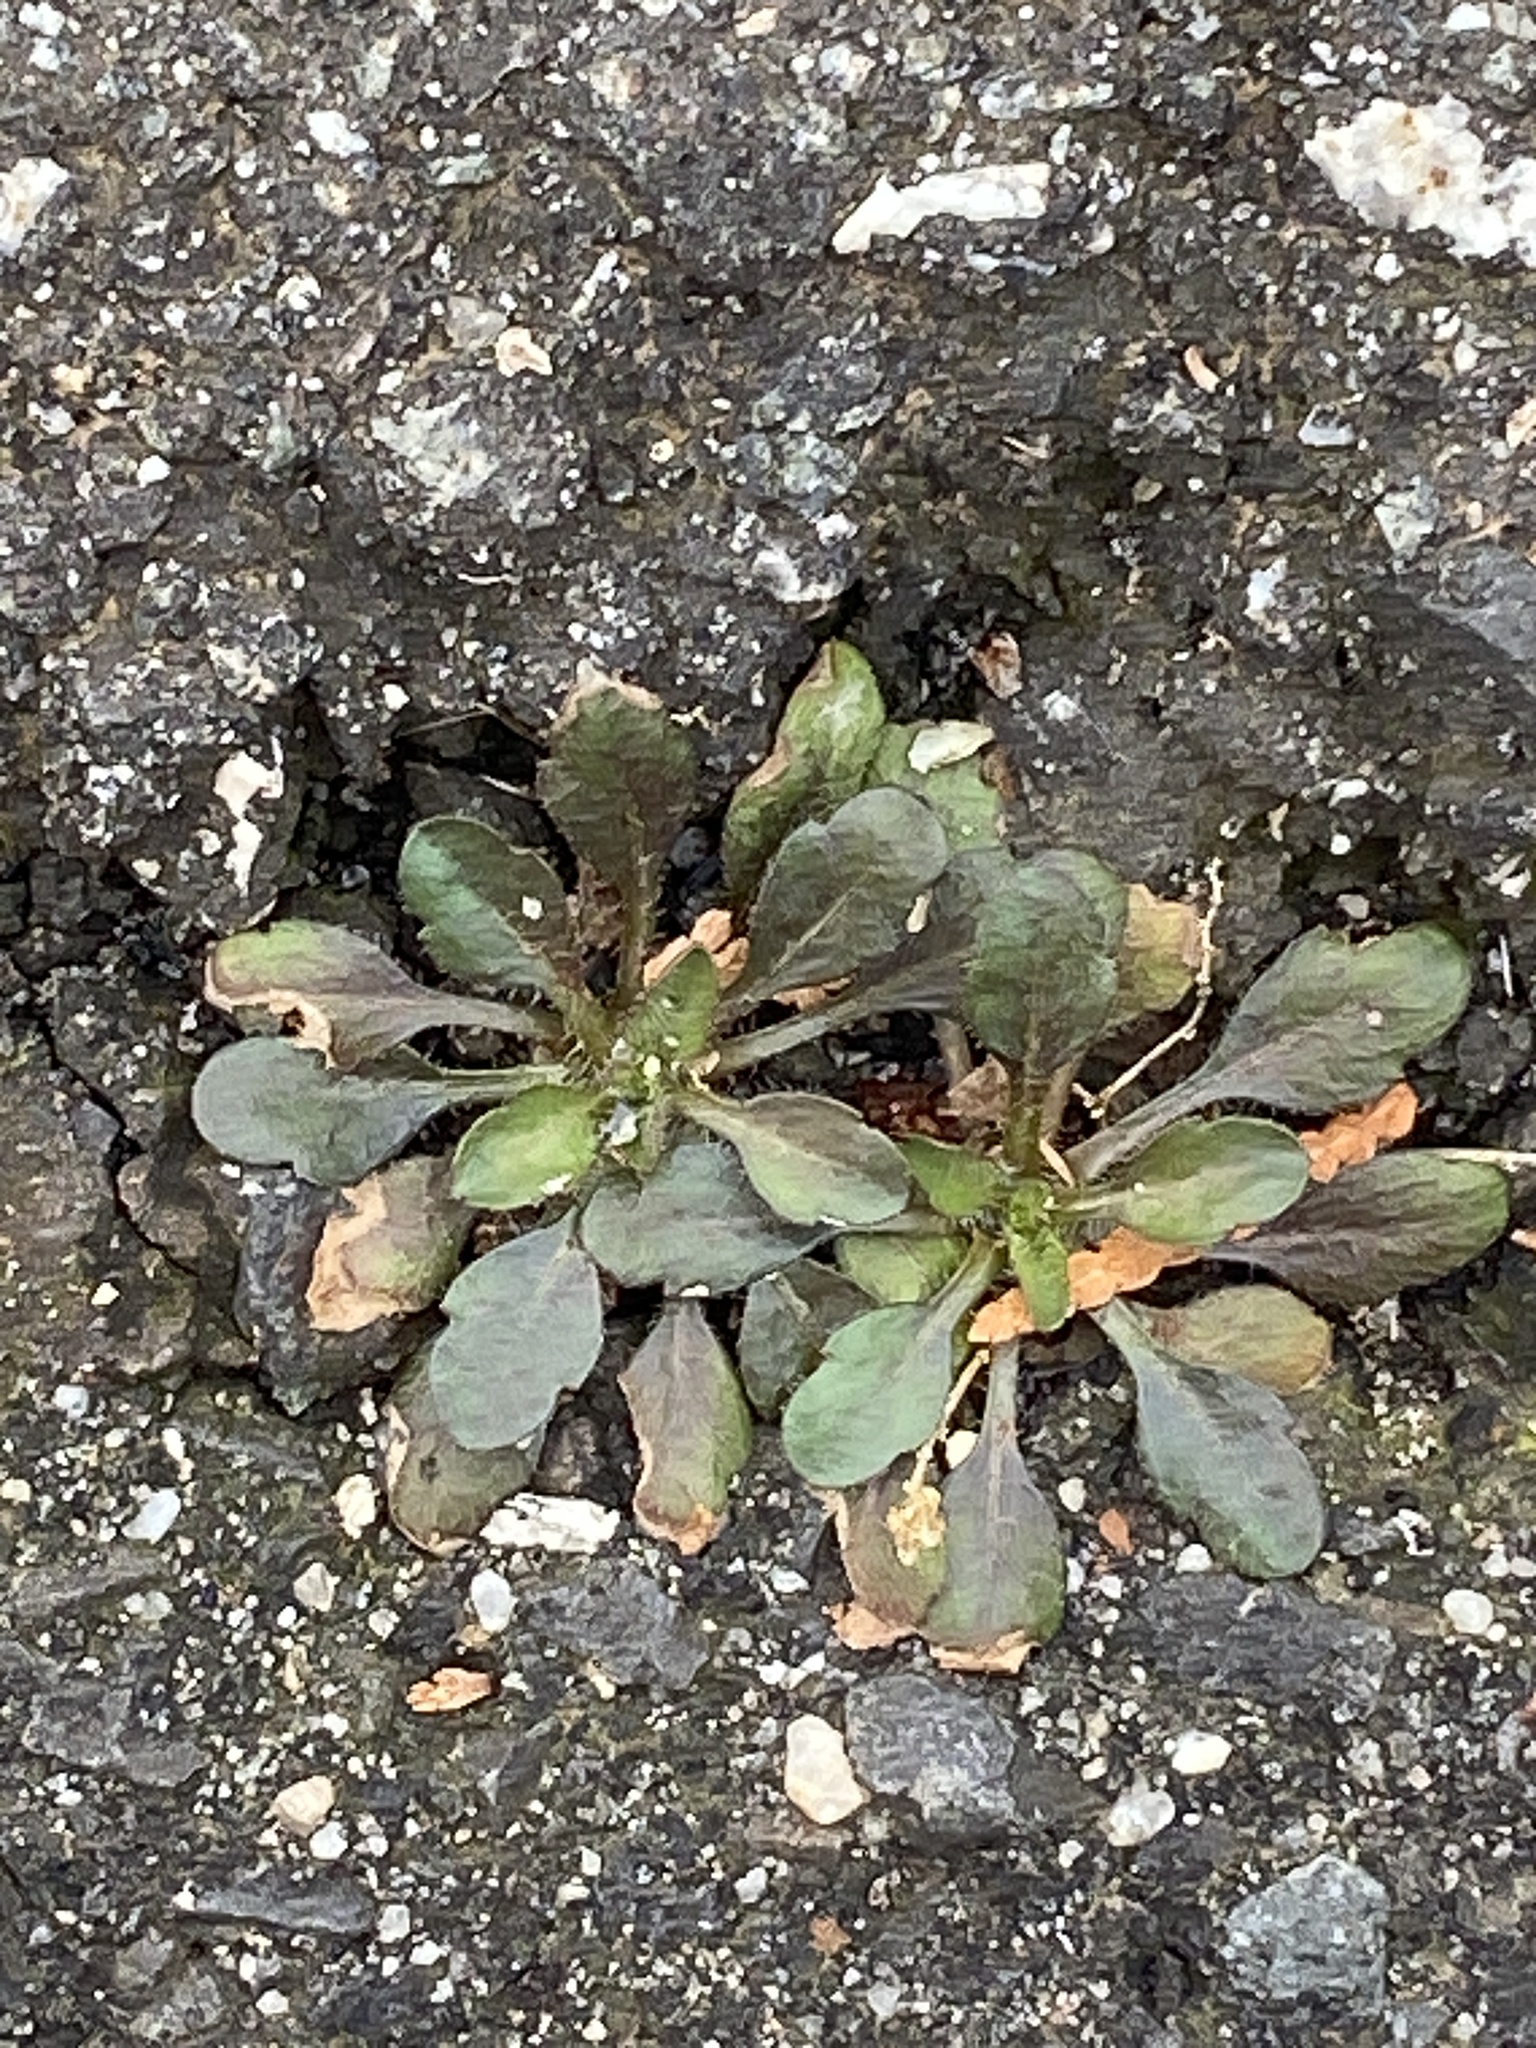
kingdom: Plantae
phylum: Tracheophyta
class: Magnoliopsida
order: Asterales
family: Asteraceae
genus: Erigeron
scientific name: Erigeron canadensis
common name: Canadian fleabane
